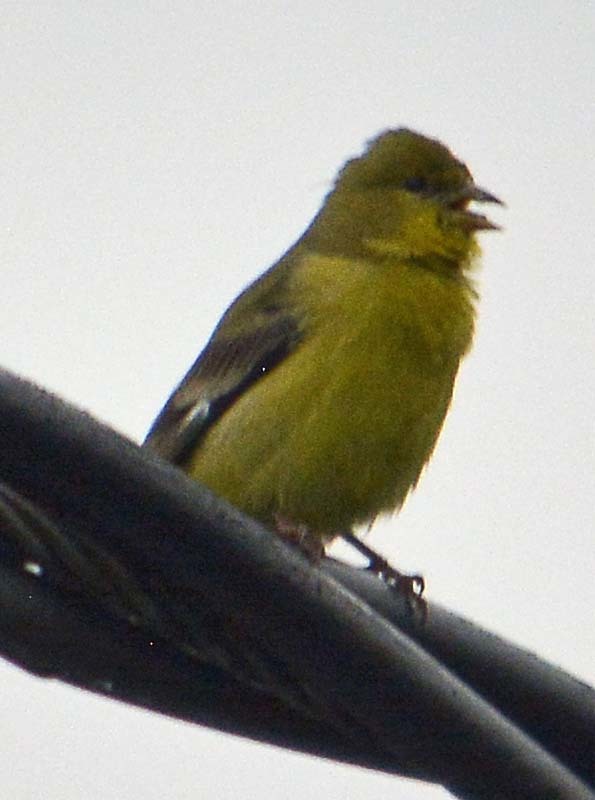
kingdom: Animalia
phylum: Chordata
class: Aves
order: Passeriformes
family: Fringillidae
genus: Spinus
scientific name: Spinus psaltria
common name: Lesser goldfinch
